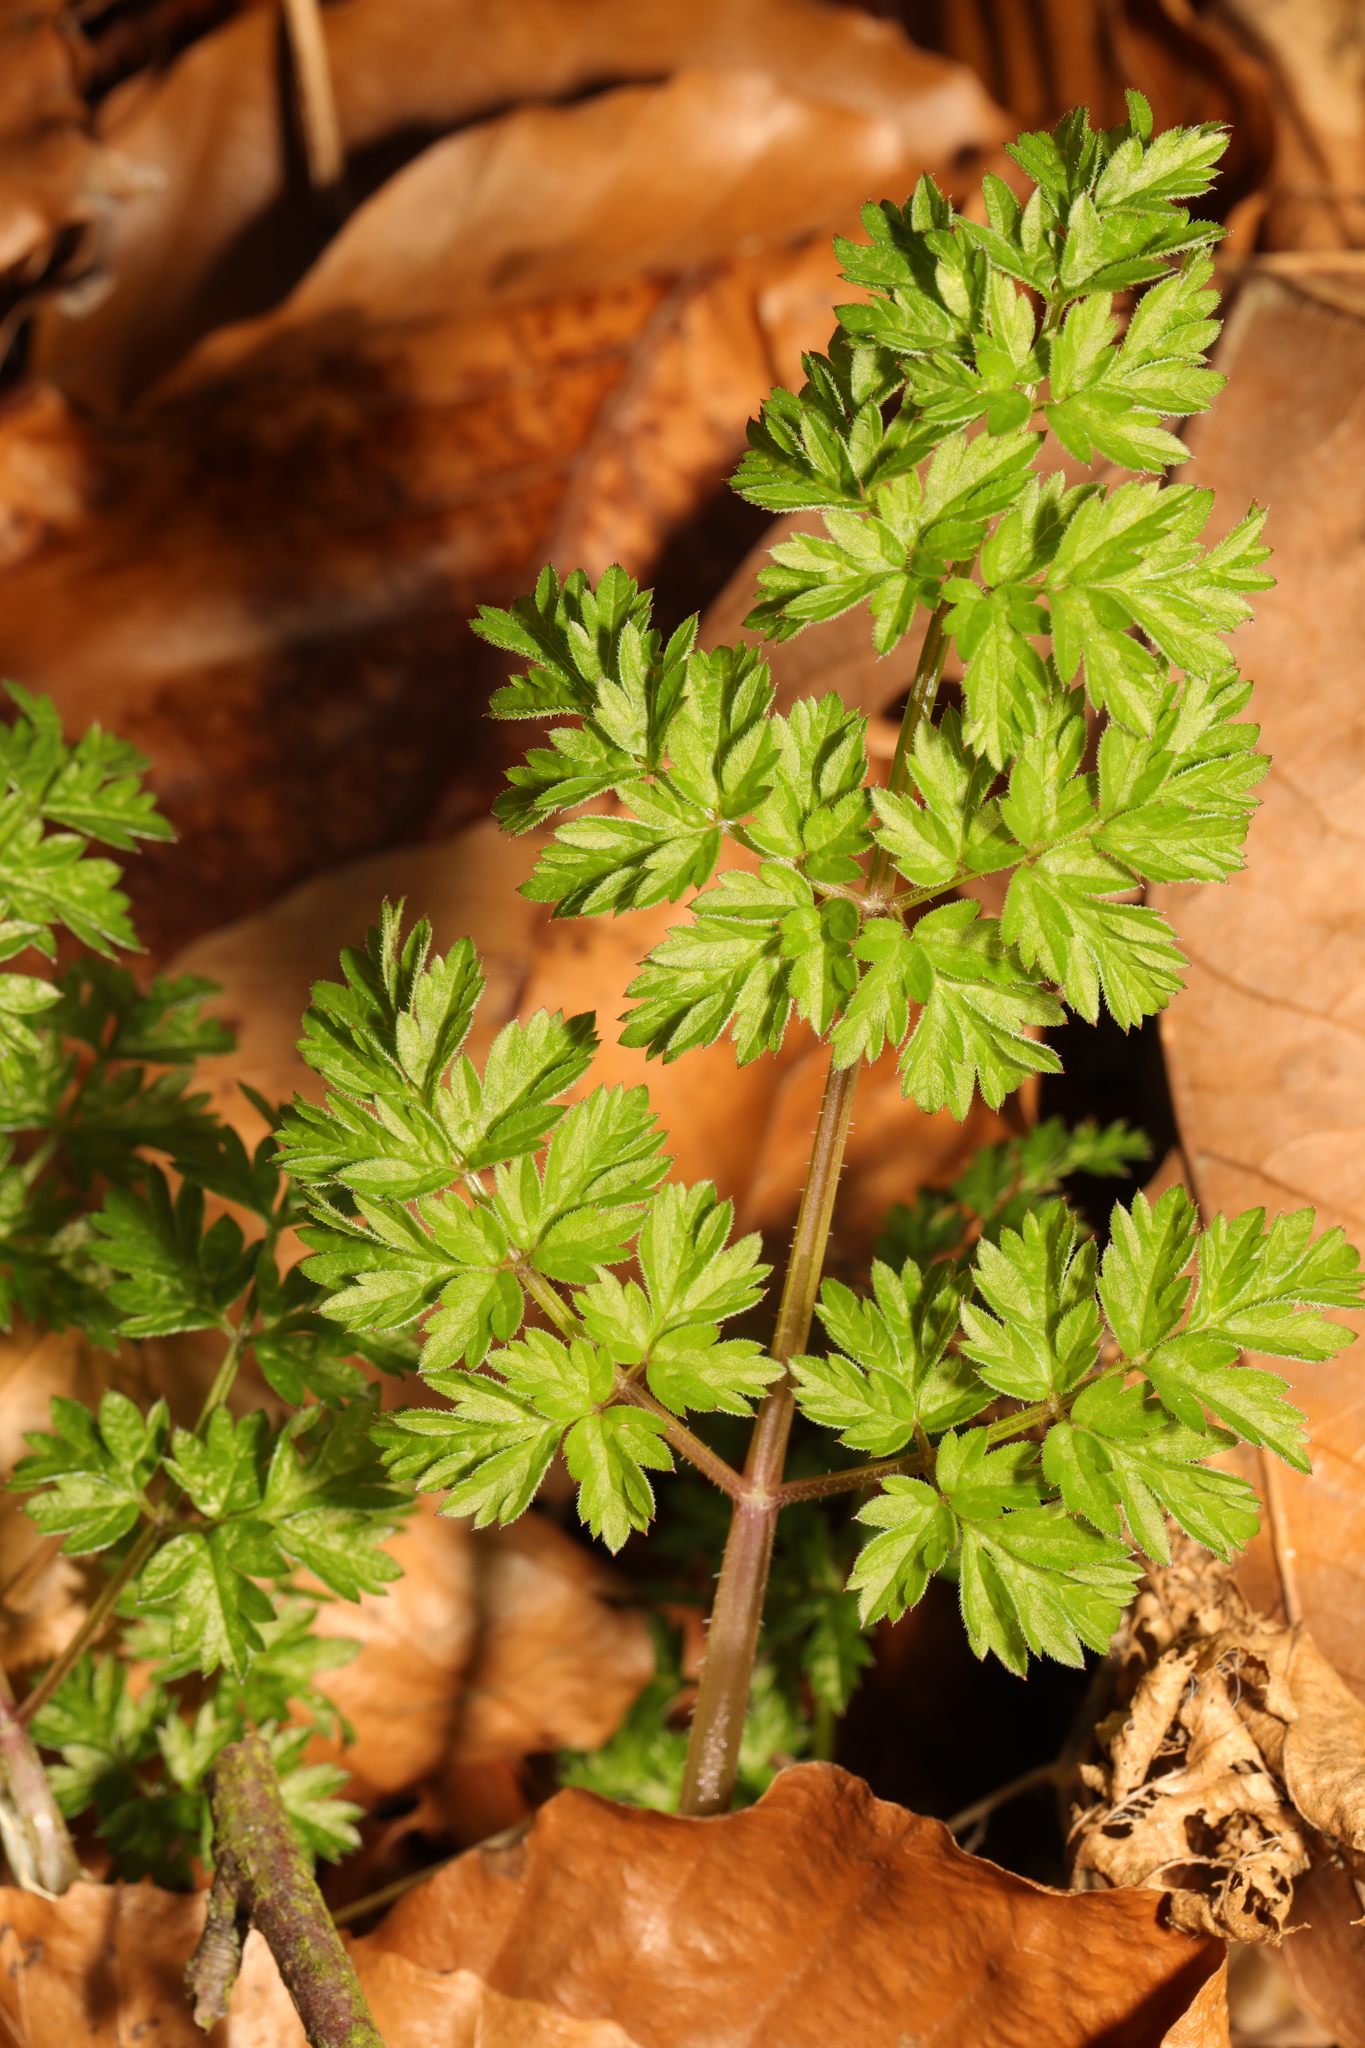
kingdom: Plantae
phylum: Tracheophyta
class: Magnoliopsida
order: Apiales
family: Apiaceae
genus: Anthriscus
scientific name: Anthriscus sylvestris
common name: Cow parsley
